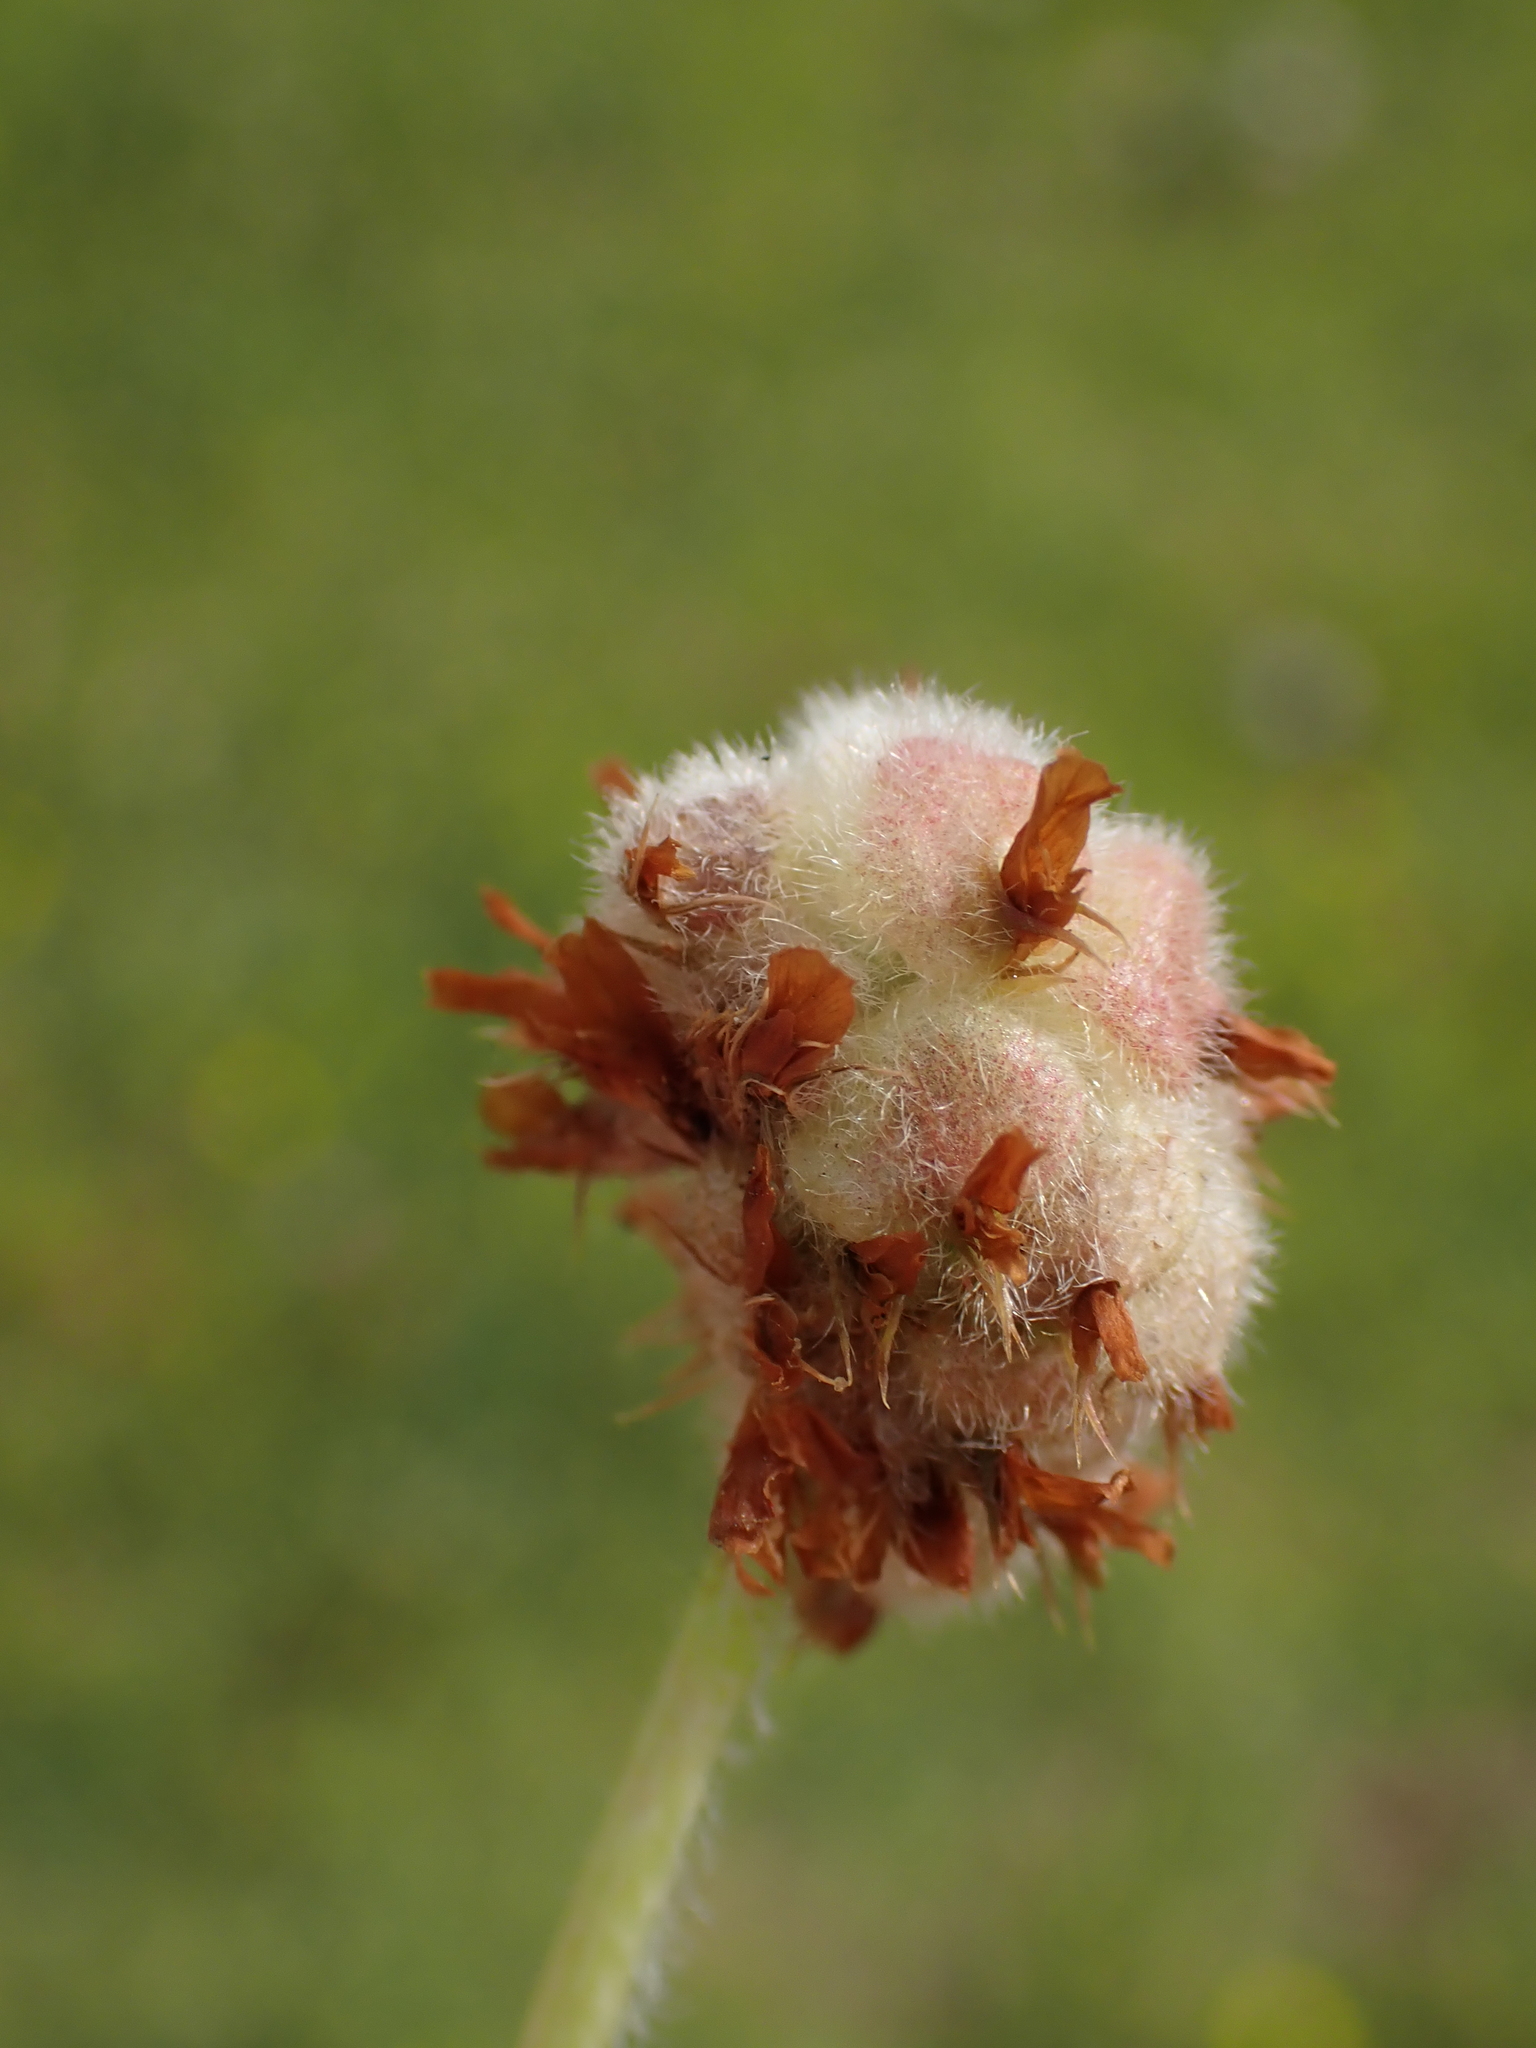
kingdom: Plantae
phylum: Tracheophyta
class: Magnoliopsida
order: Fabales
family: Fabaceae
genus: Trifolium
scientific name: Trifolium fragiferum
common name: Strawberry clover
